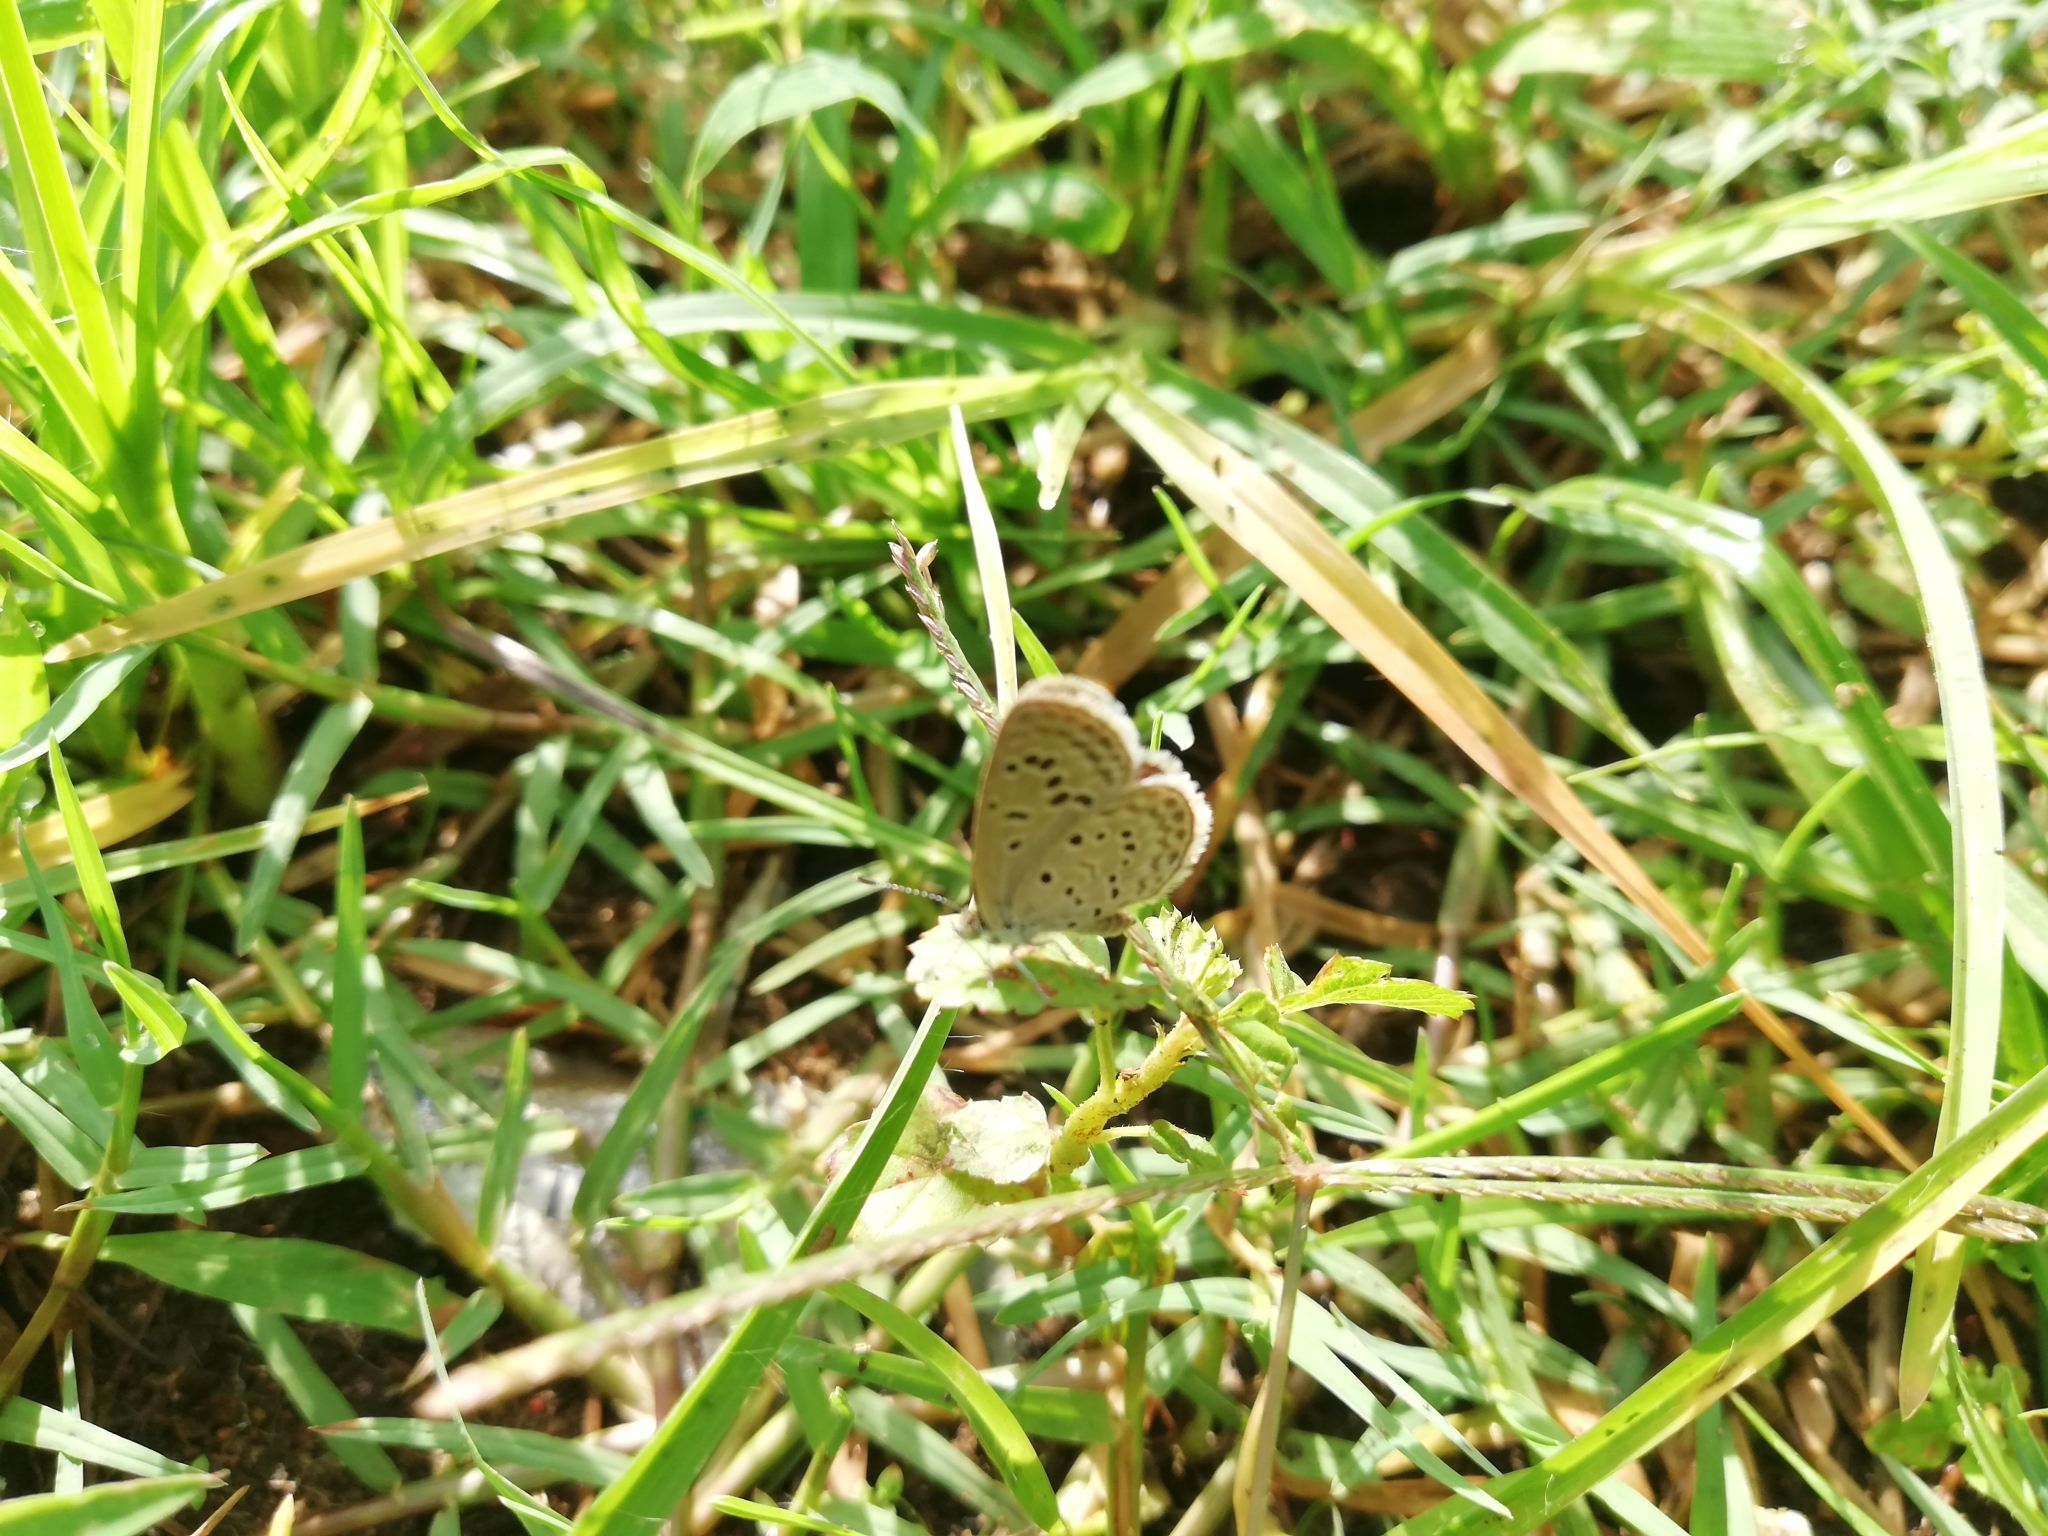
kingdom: Animalia
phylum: Arthropoda
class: Insecta
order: Lepidoptera
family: Lycaenidae
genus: Zizeeria
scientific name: Zizeeria karsandra
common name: Dark grass blue
